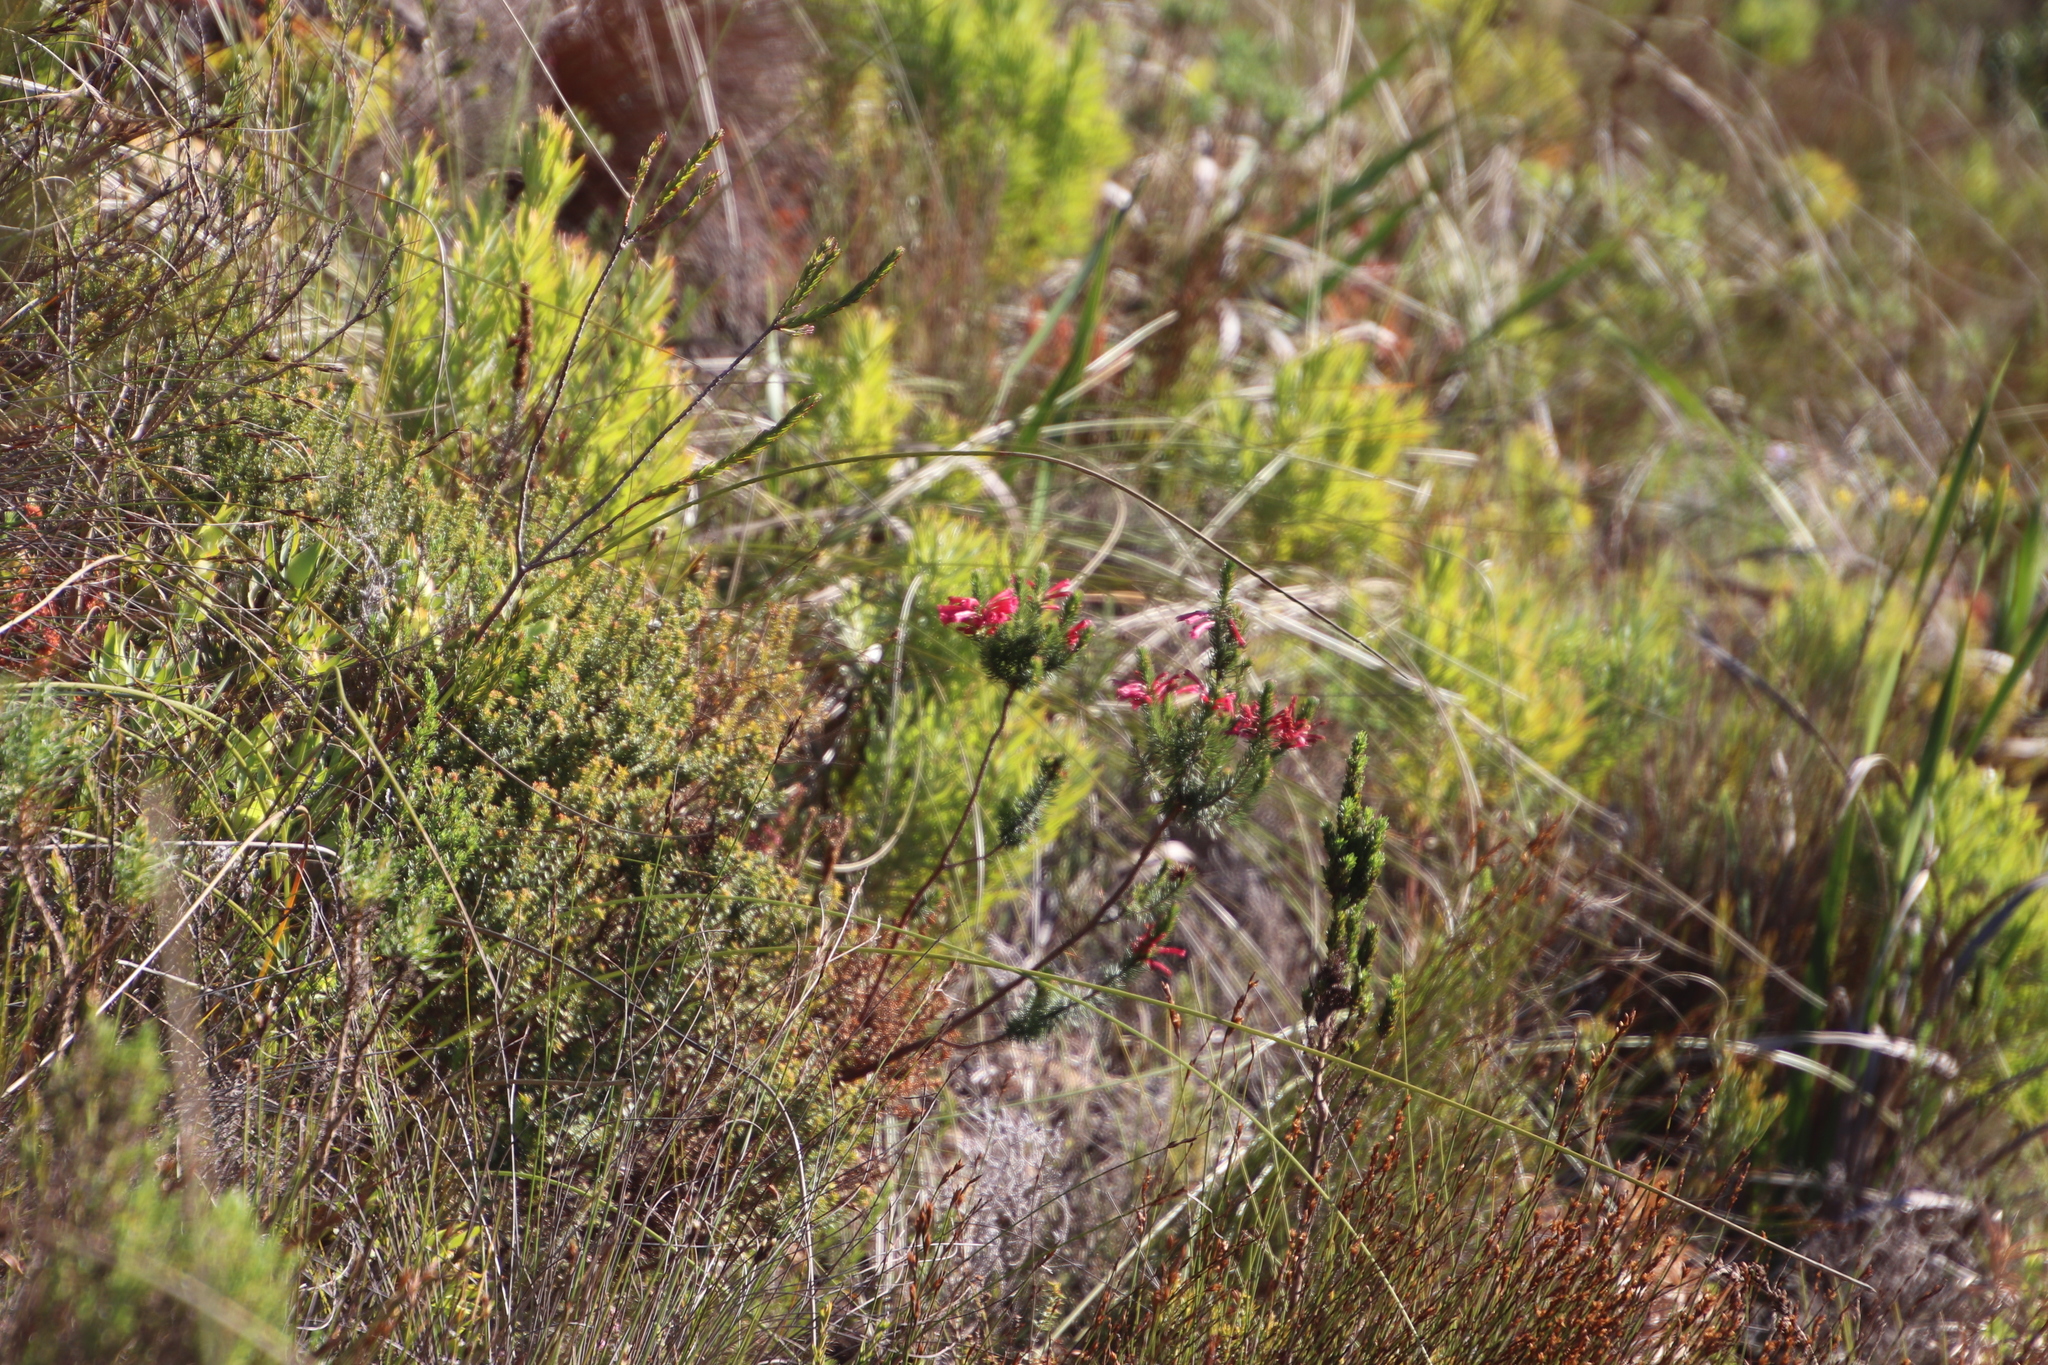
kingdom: Plantae
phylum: Tracheophyta
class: Magnoliopsida
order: Ericales
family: Ericaceae
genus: Erica
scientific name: Erica abietina
